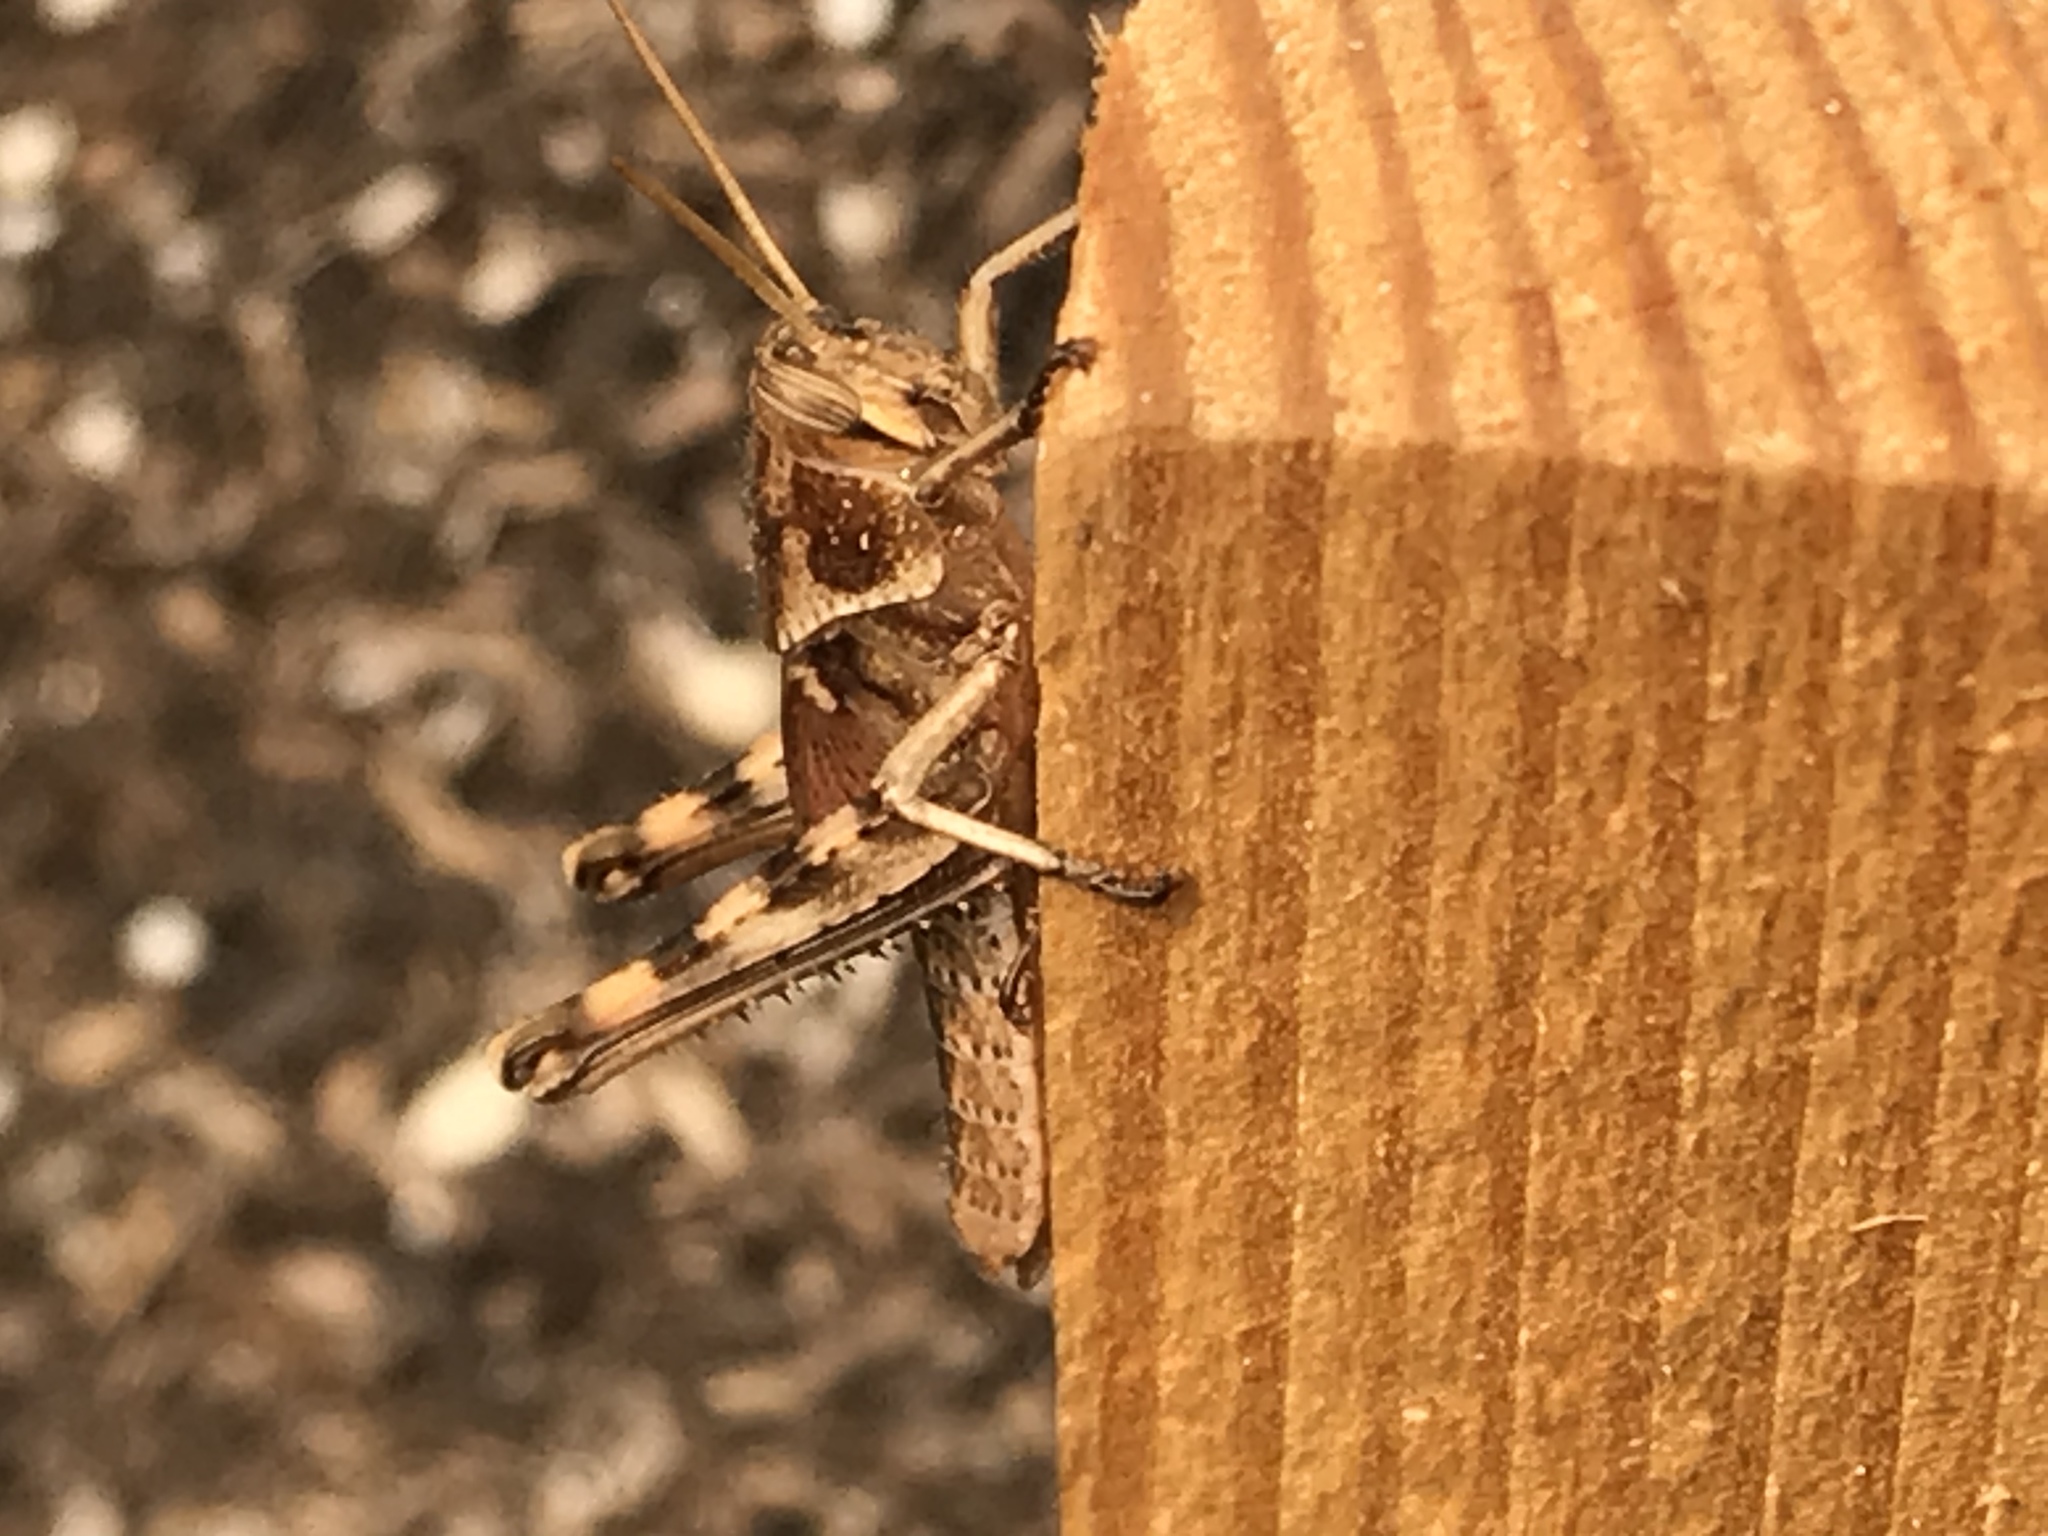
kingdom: Animalia
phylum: Arthropoda
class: Insecta
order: Orthoptera
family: Acrididae
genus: Schistocerca
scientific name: Schistocerca nitens
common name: Vagrant grasshopper
